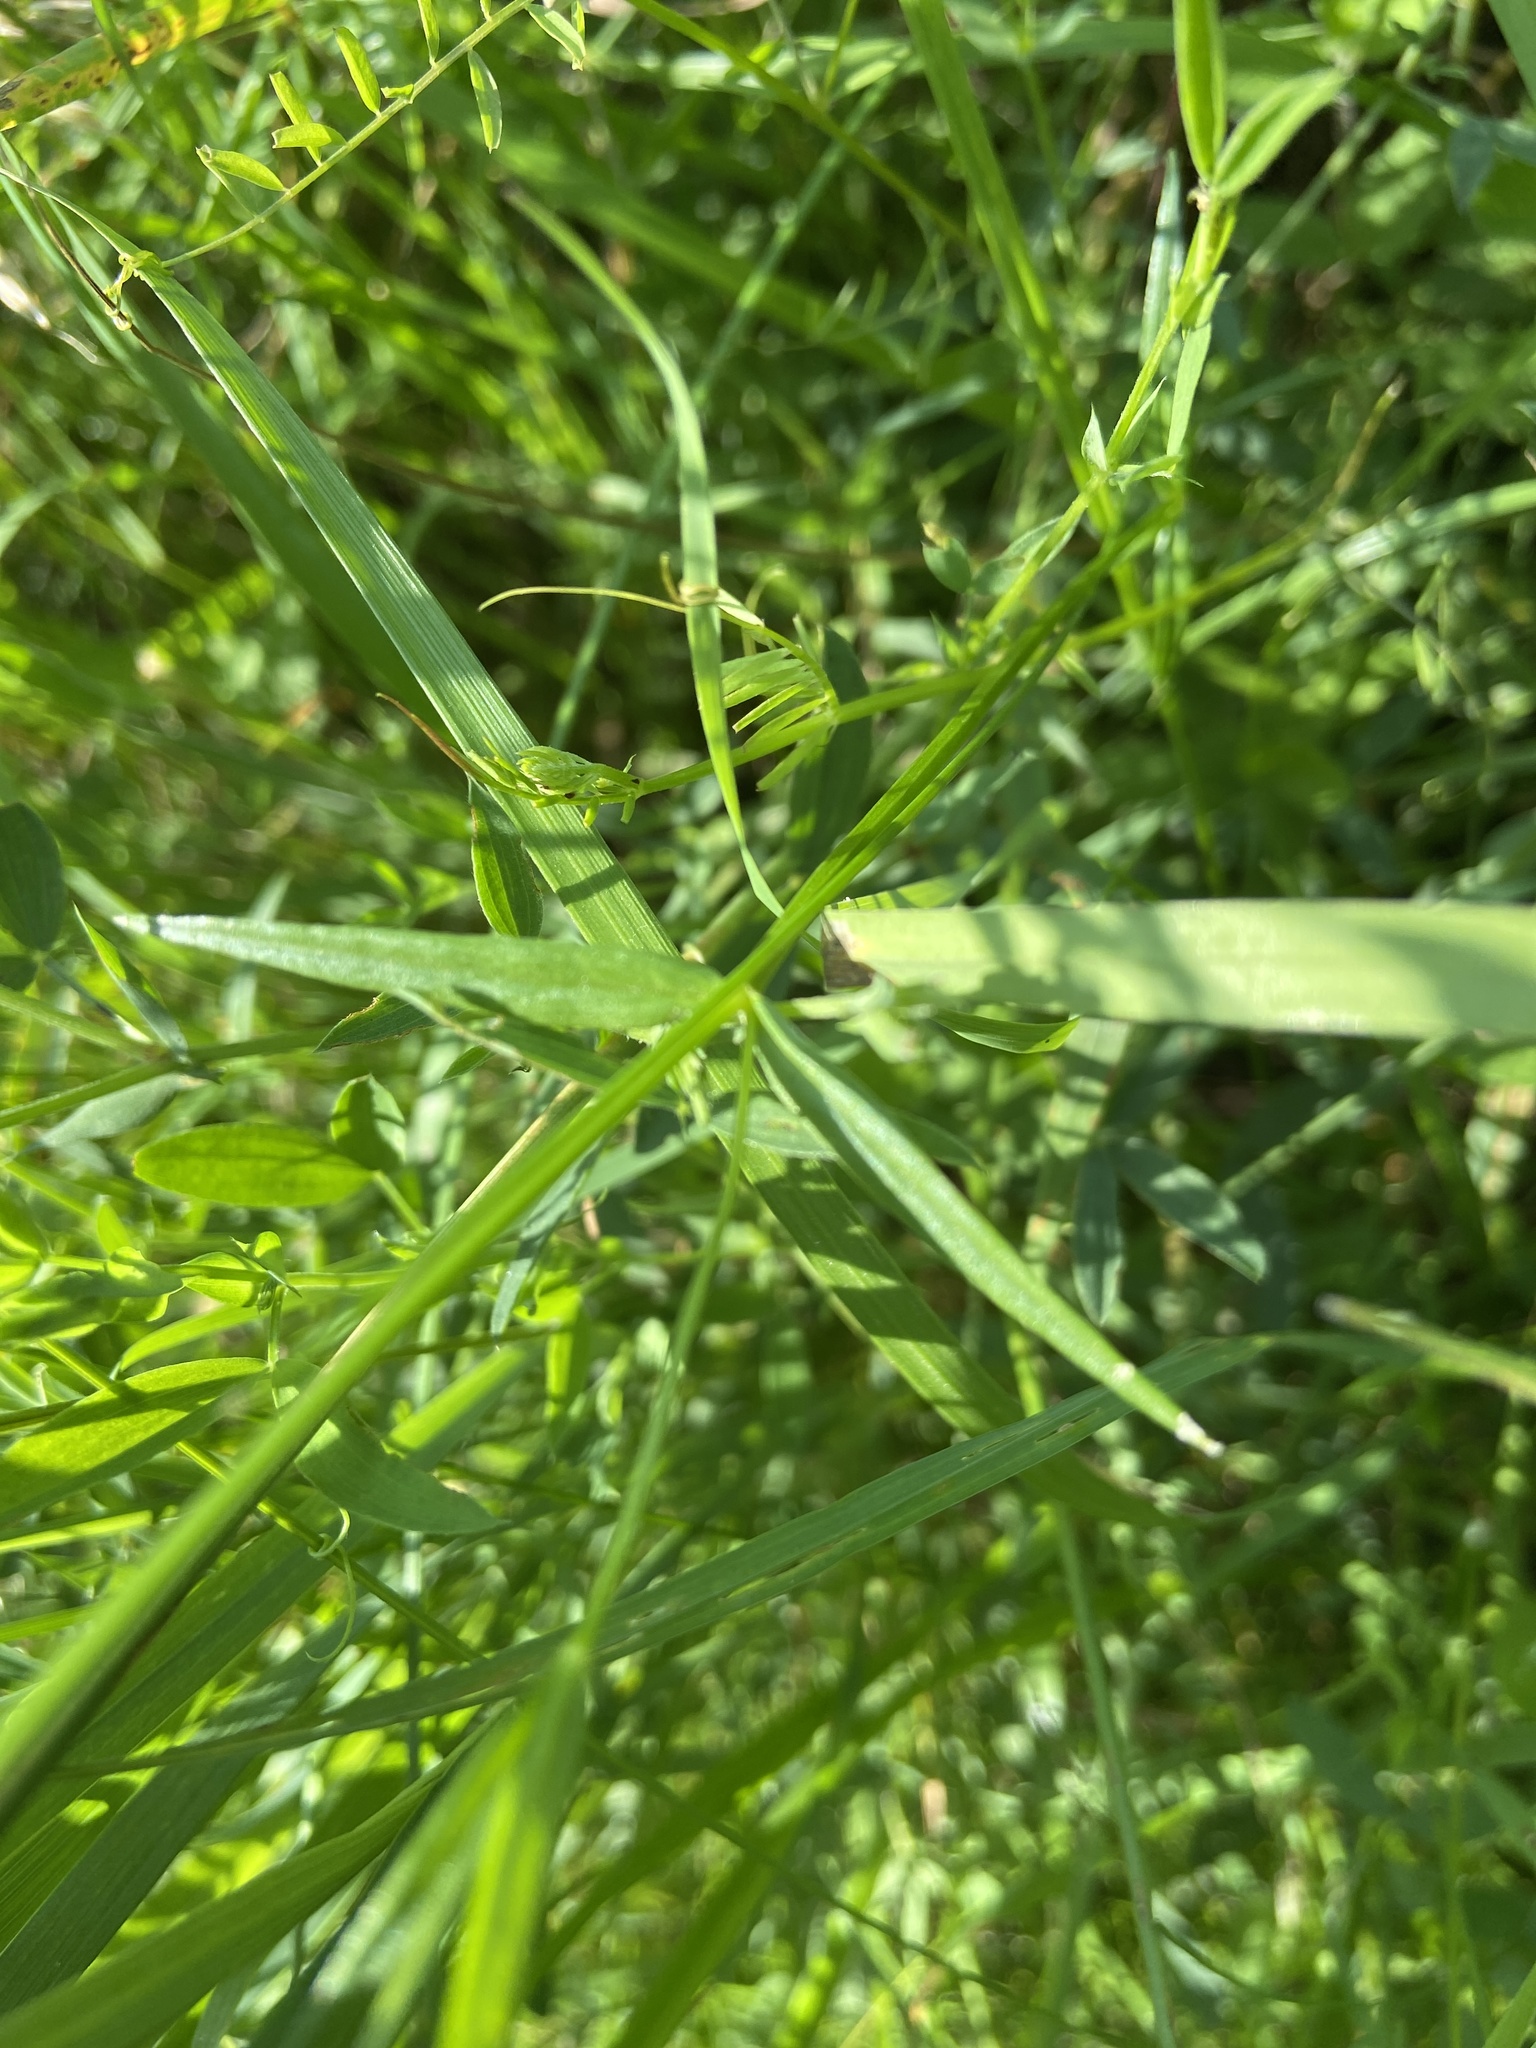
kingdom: Plantae
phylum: Tracheophyta
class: Magnoliopsida
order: Caryophyllales
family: Caryophyllaceae
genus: Stellaria
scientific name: Stellaria graminea
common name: Grass-like starwort
